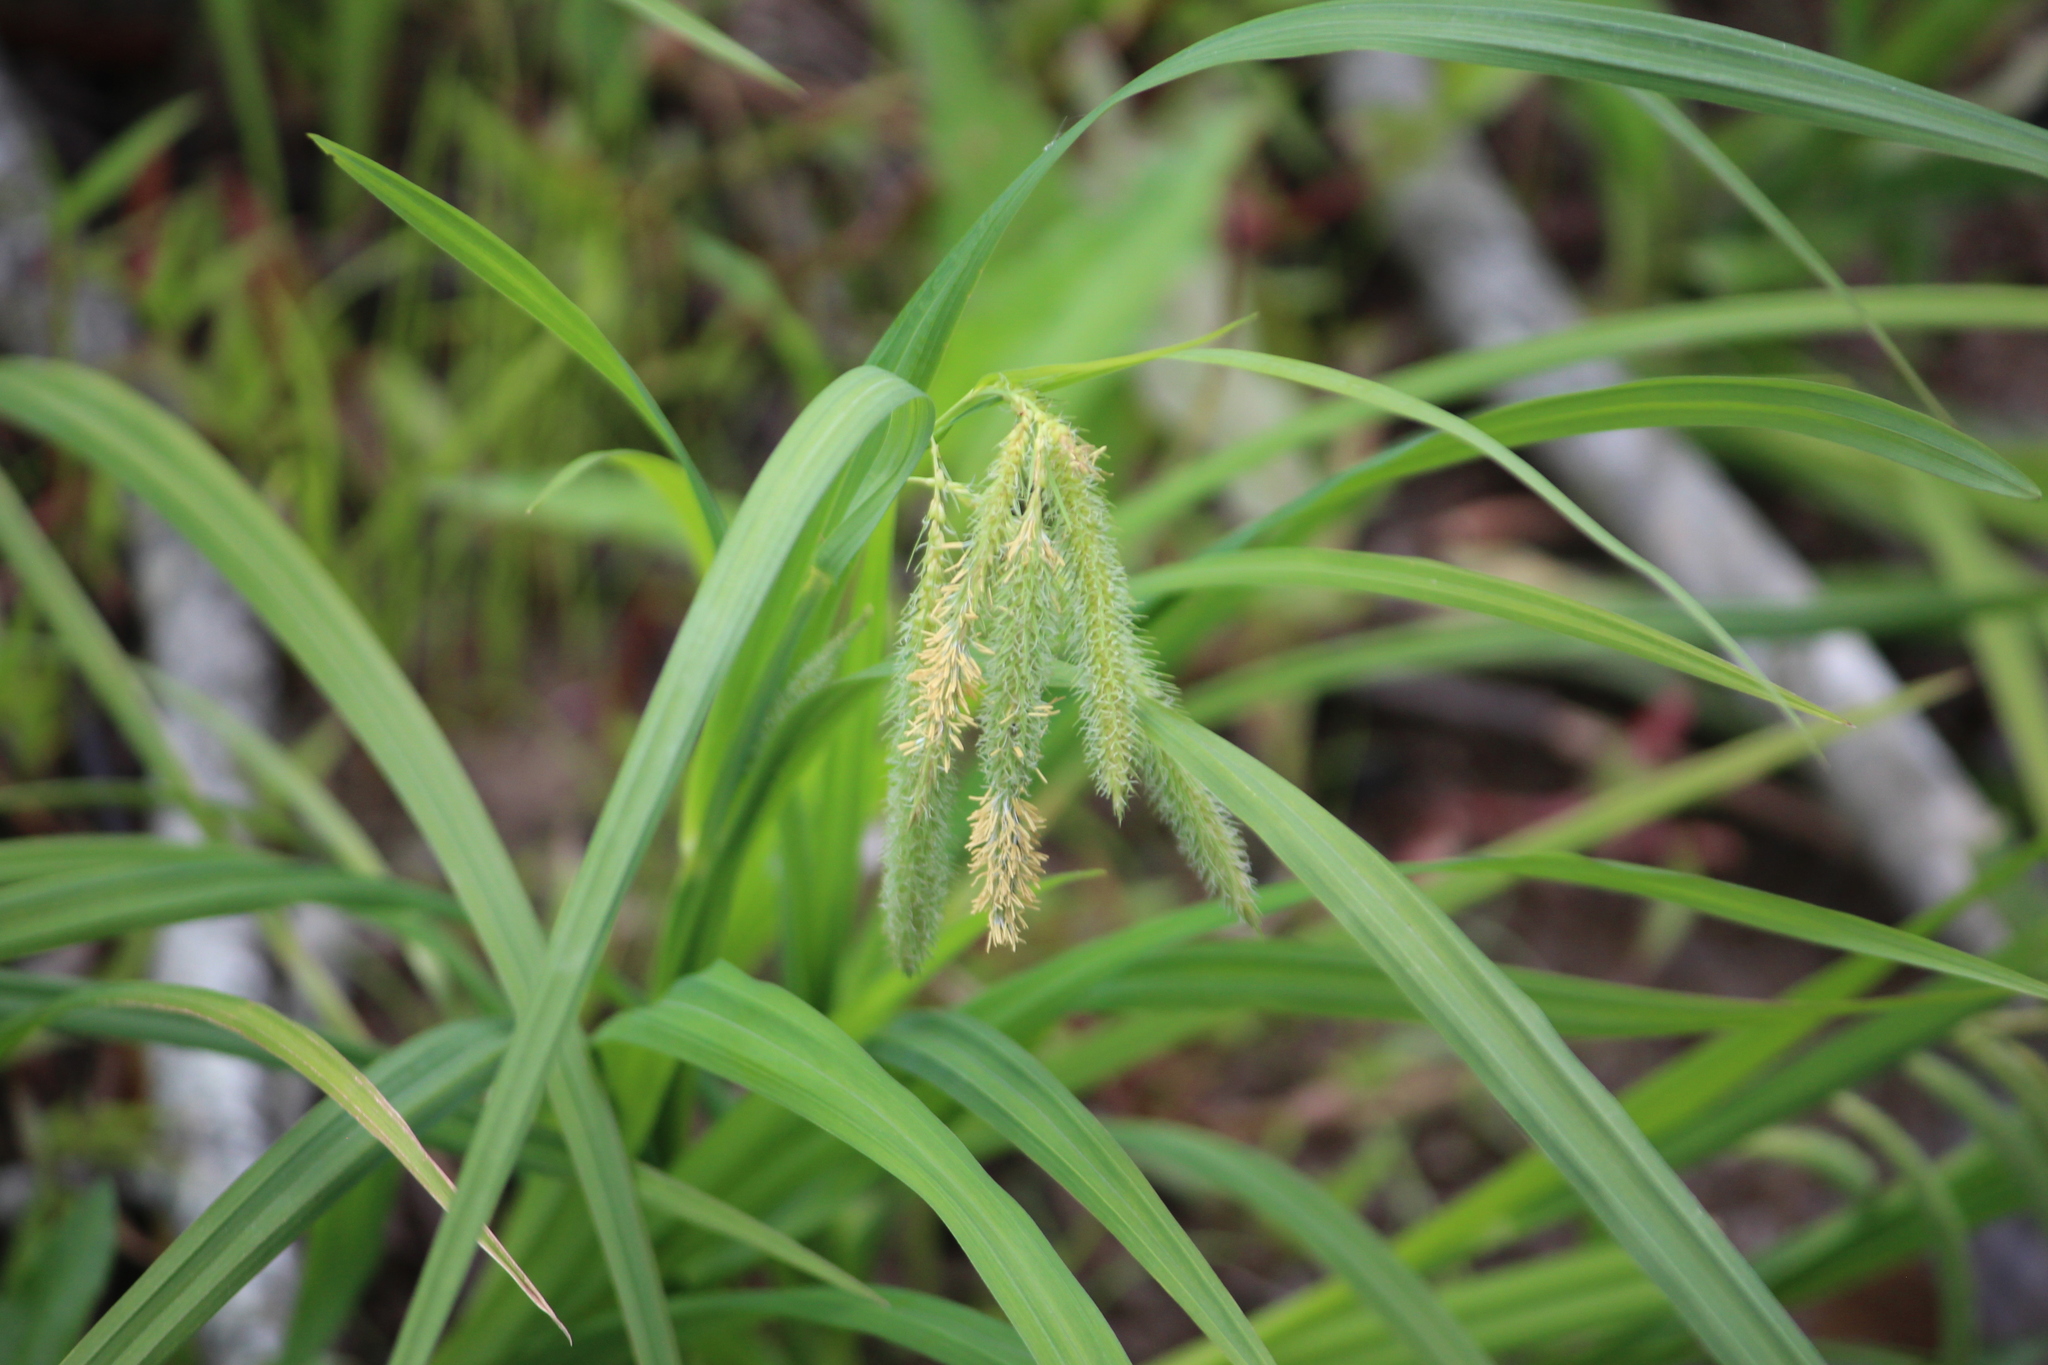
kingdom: Plantae
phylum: Tracheophyta
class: Liliopsida
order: Poales
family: Cyperaceae
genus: Carex
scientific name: Carex crinita
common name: Fringed sedge
